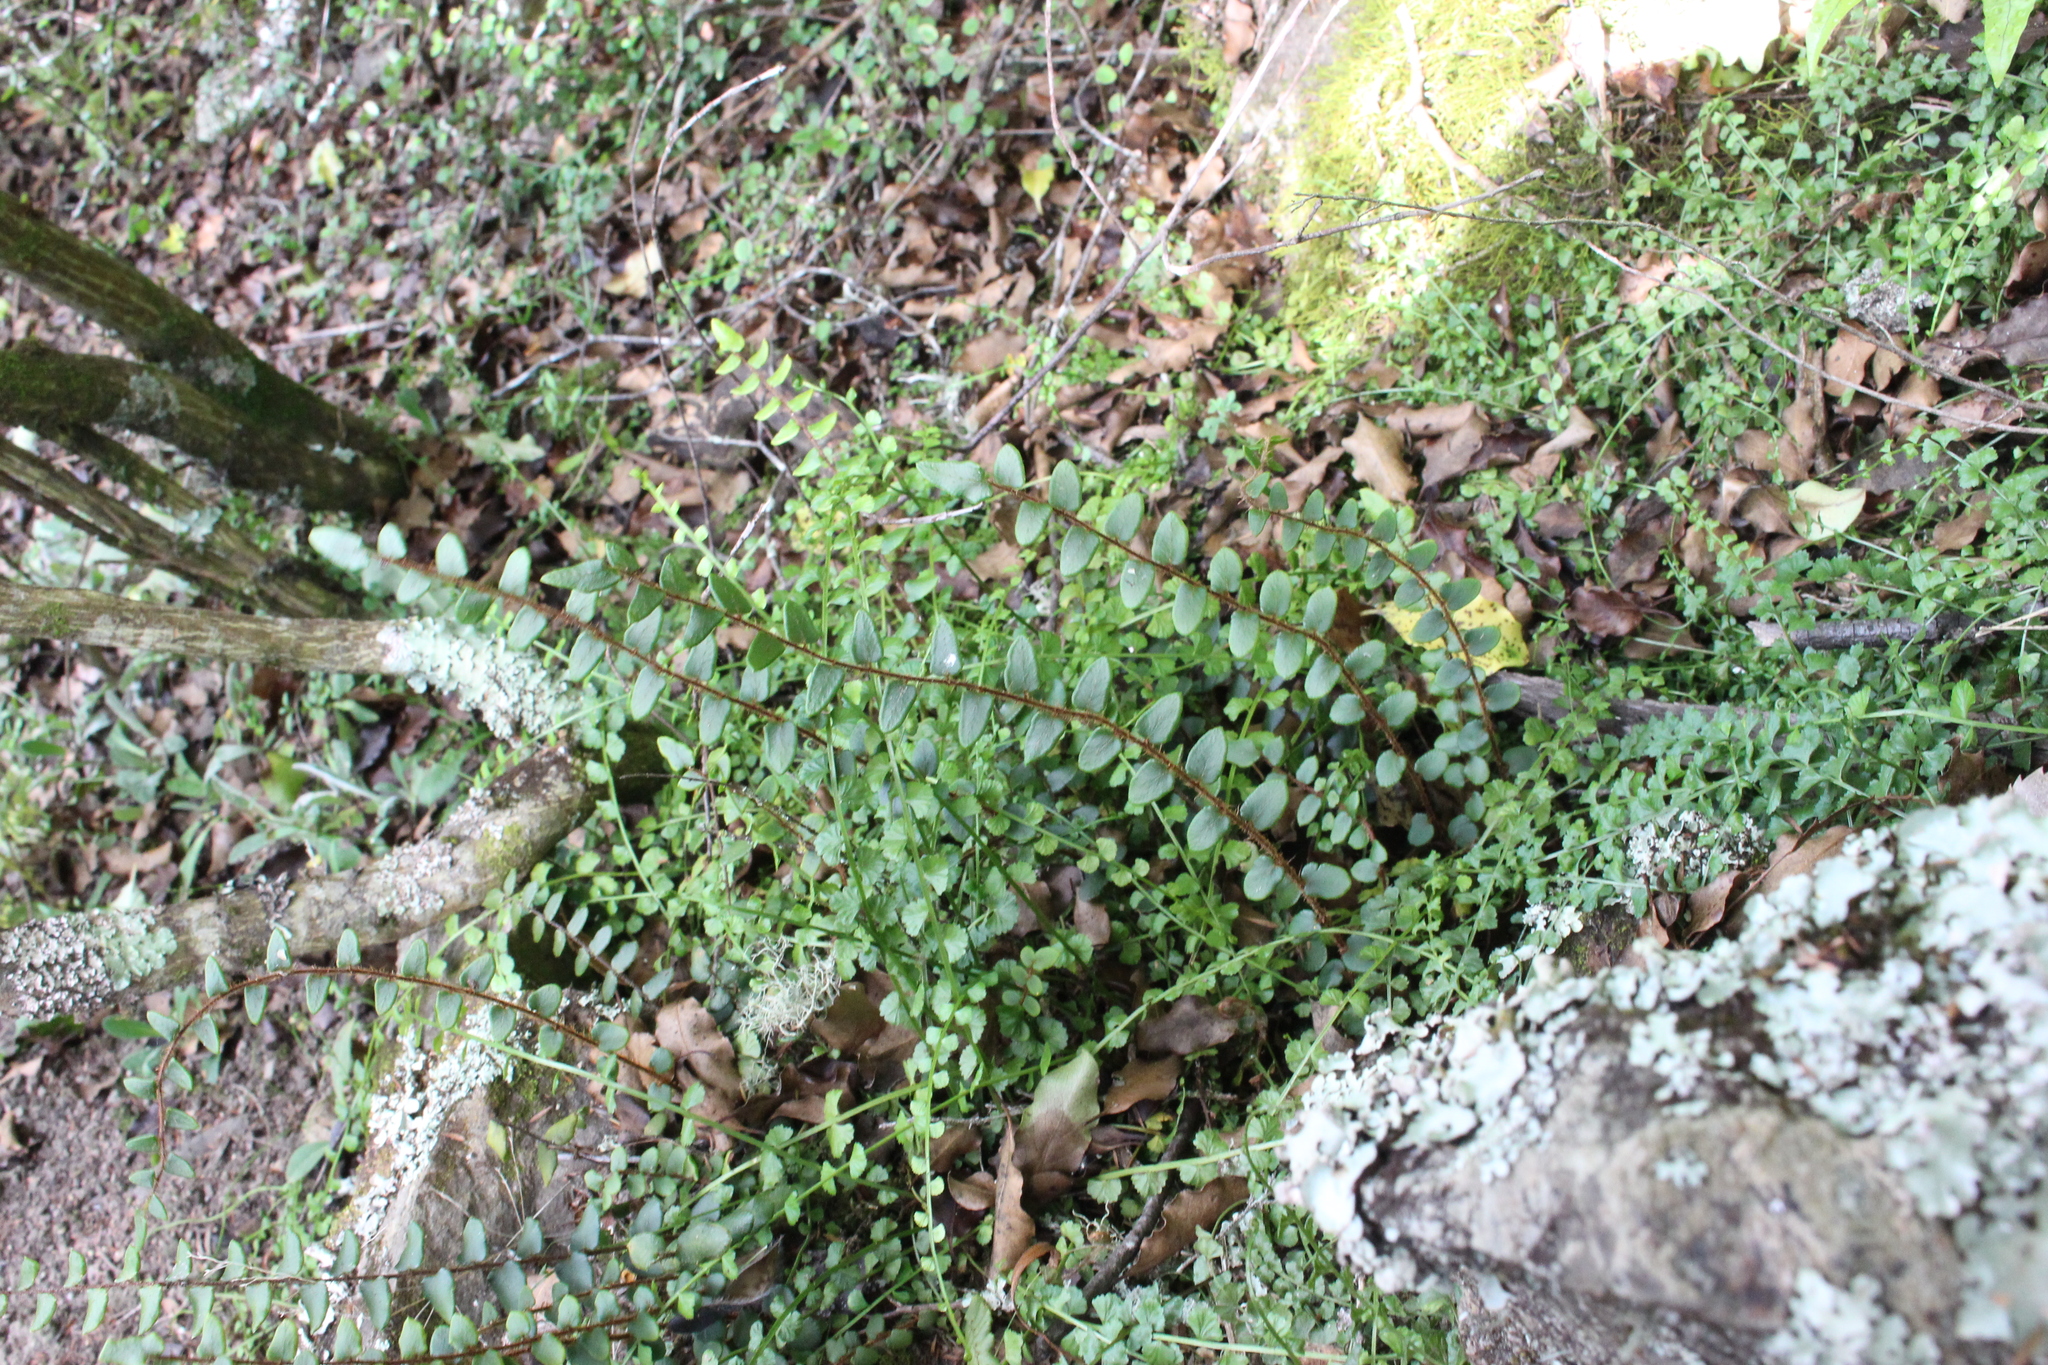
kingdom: Plantae
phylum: Tracheophyta
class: Polypodiopsida
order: Polypodiales
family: Pteridaceae
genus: Pellaea
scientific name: Pellaea rotundifolia
